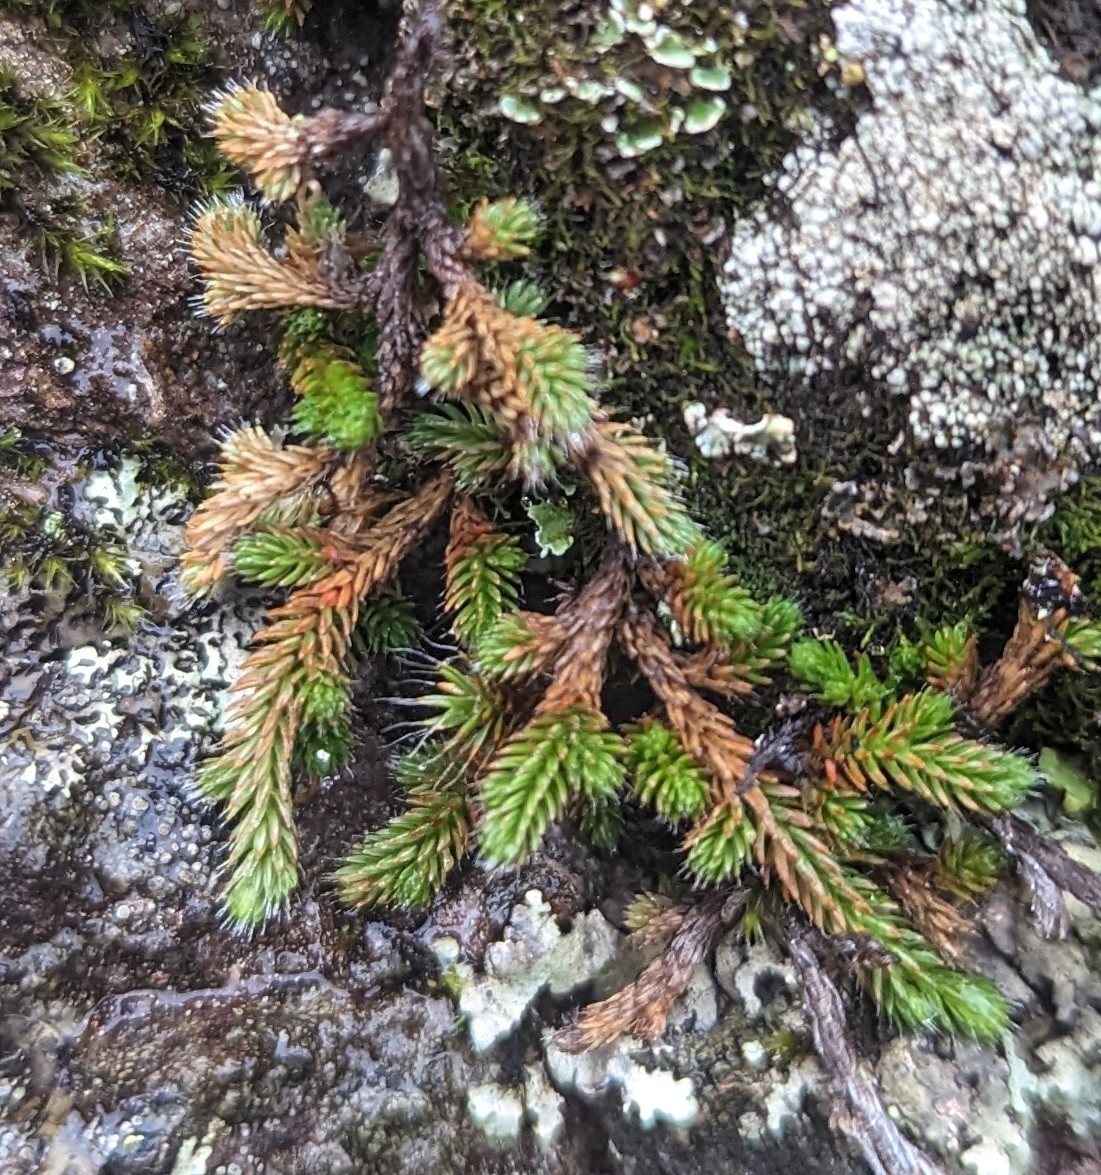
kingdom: Plantae
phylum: Tracheophyta
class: Lycopodiopsida
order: Selaginellales
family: Selaginellaceae
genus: Selaginella
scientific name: Selaginella wallacei
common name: Wallace's selaginella
